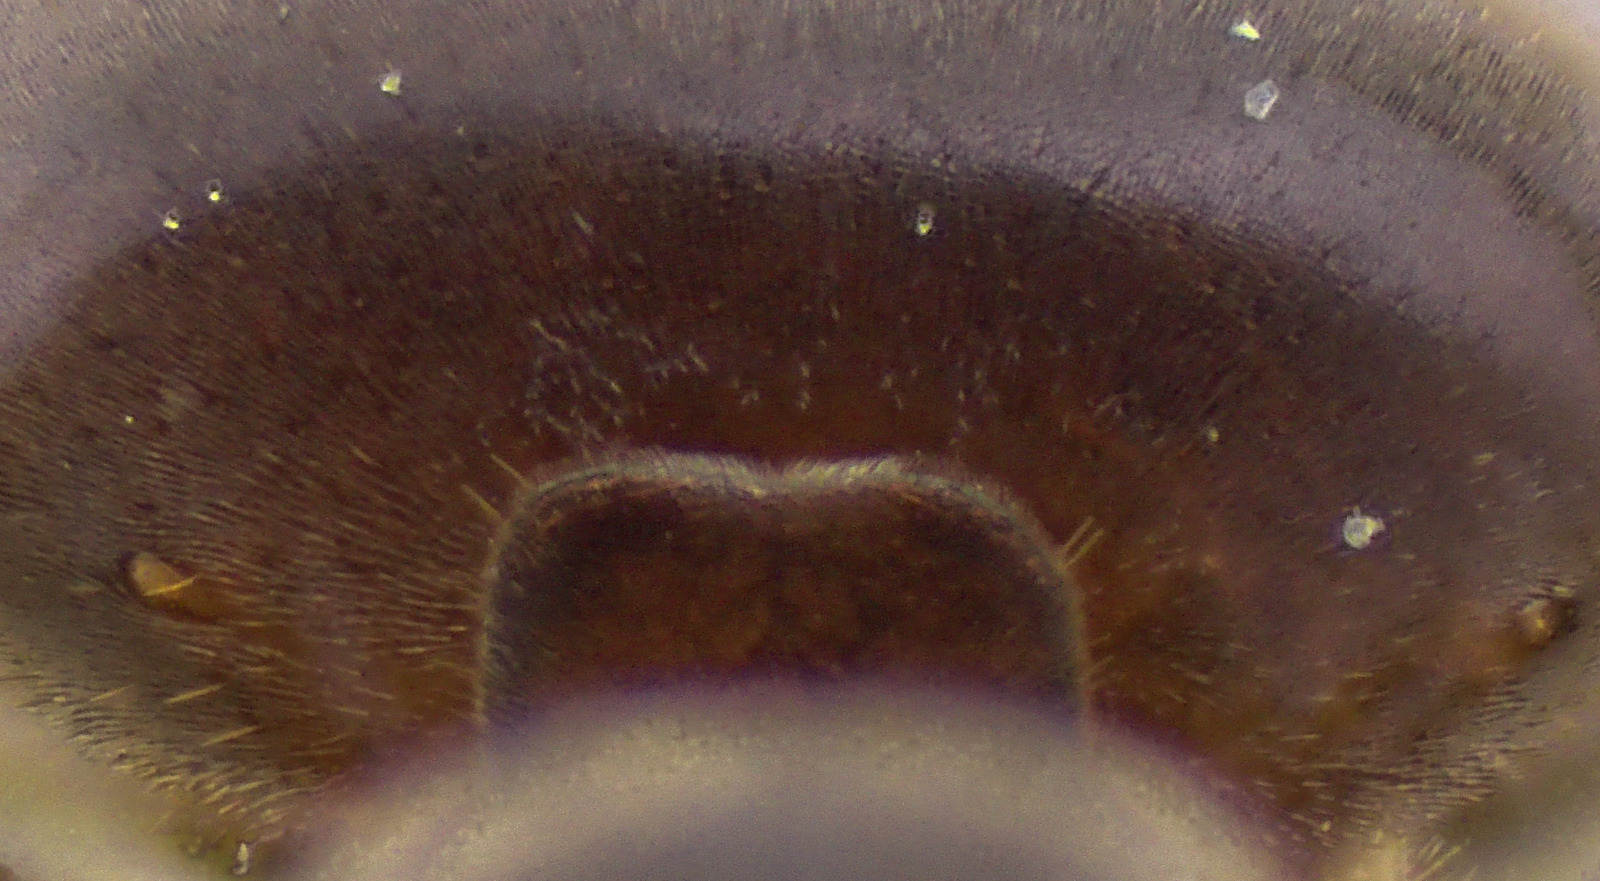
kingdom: Animalia
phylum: Arthropoda
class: Insecta
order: Hymenoptera
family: Formicidae
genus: Lasius
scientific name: Lasius aphidicola
